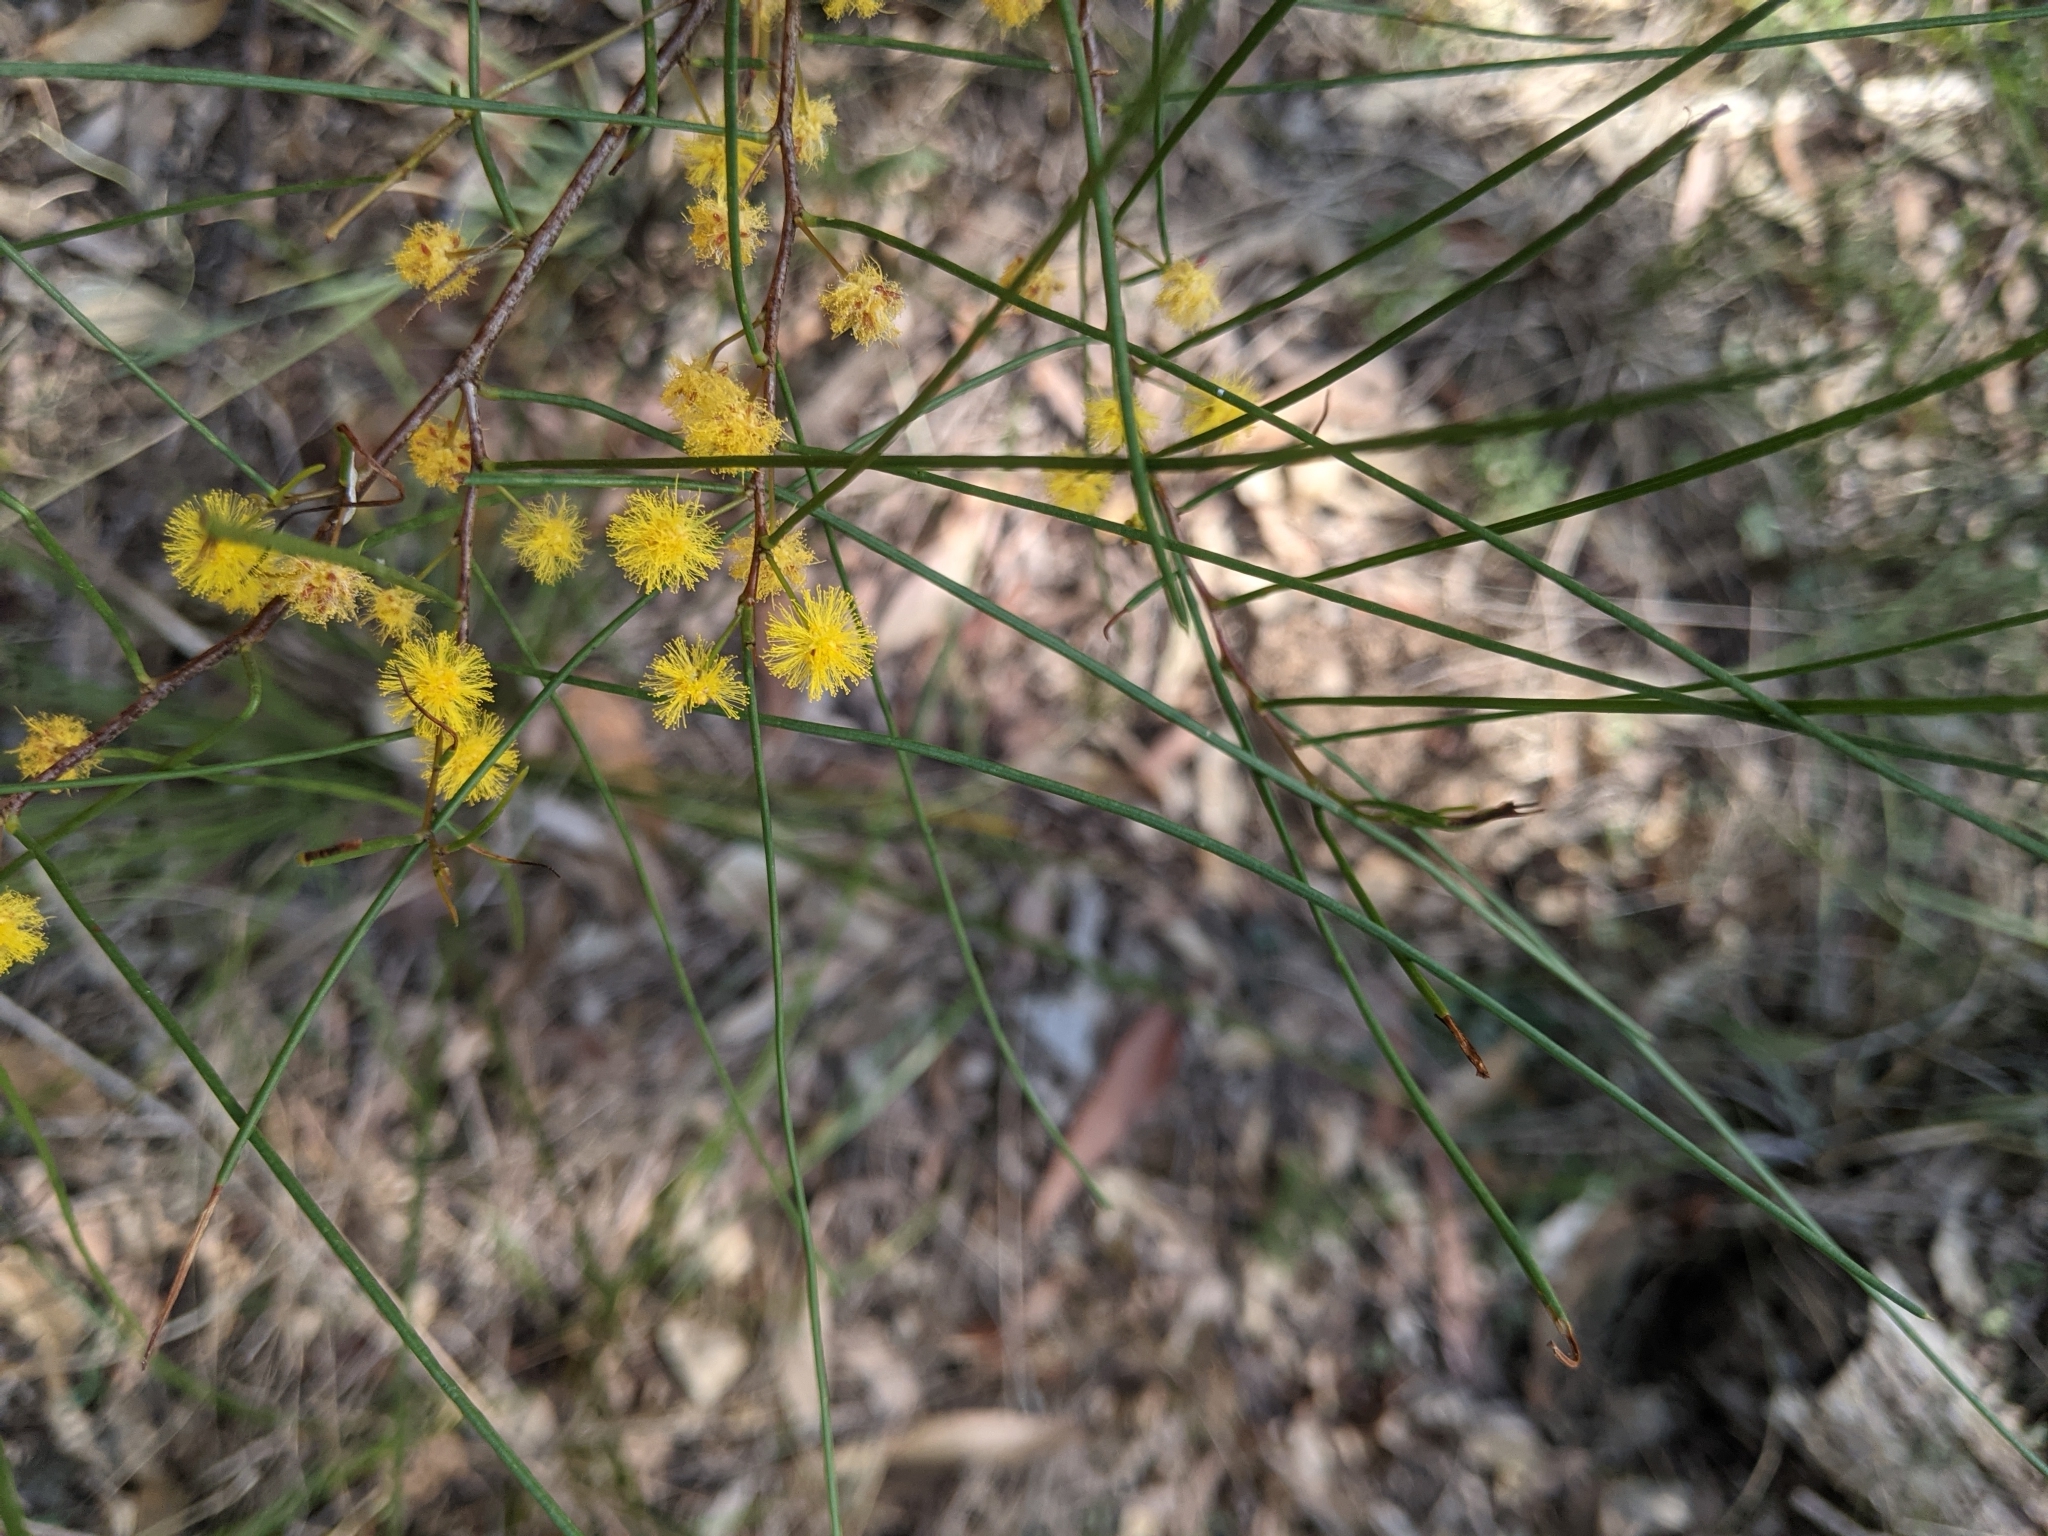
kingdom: Plantae
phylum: Tracheophyta
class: Magnoliopsida
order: Fabales
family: Fabaceae
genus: Acacia
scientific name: Acacia juncifolia
